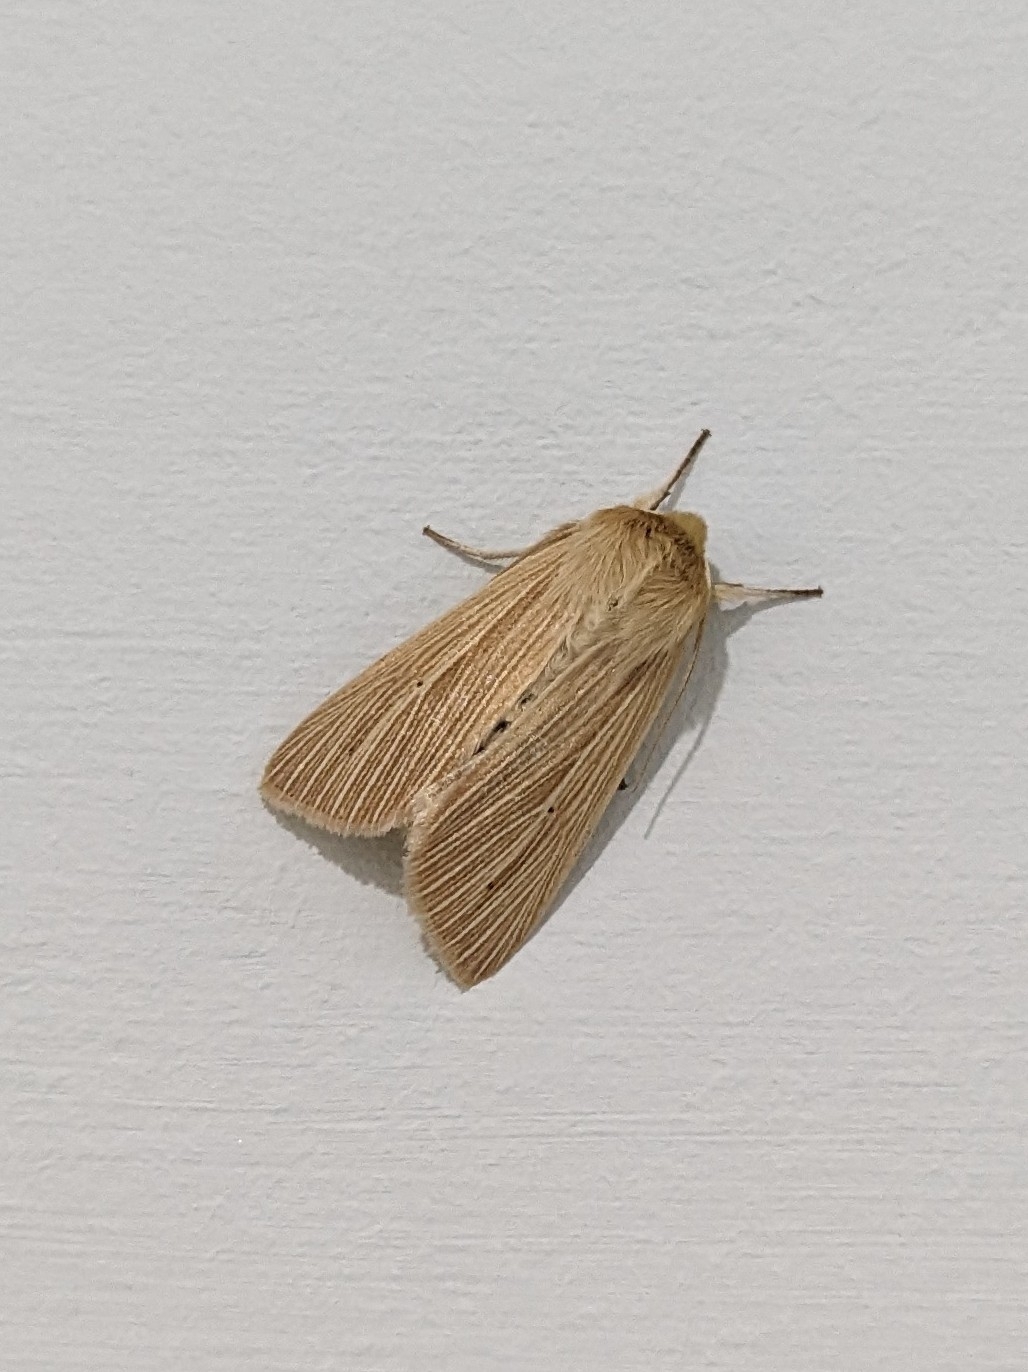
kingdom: Animalia
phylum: Arthropoda
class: Insecta
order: Lepidoptera
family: Noctuidae
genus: Mythimna
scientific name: Mythimna pallens
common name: Common wainscot
